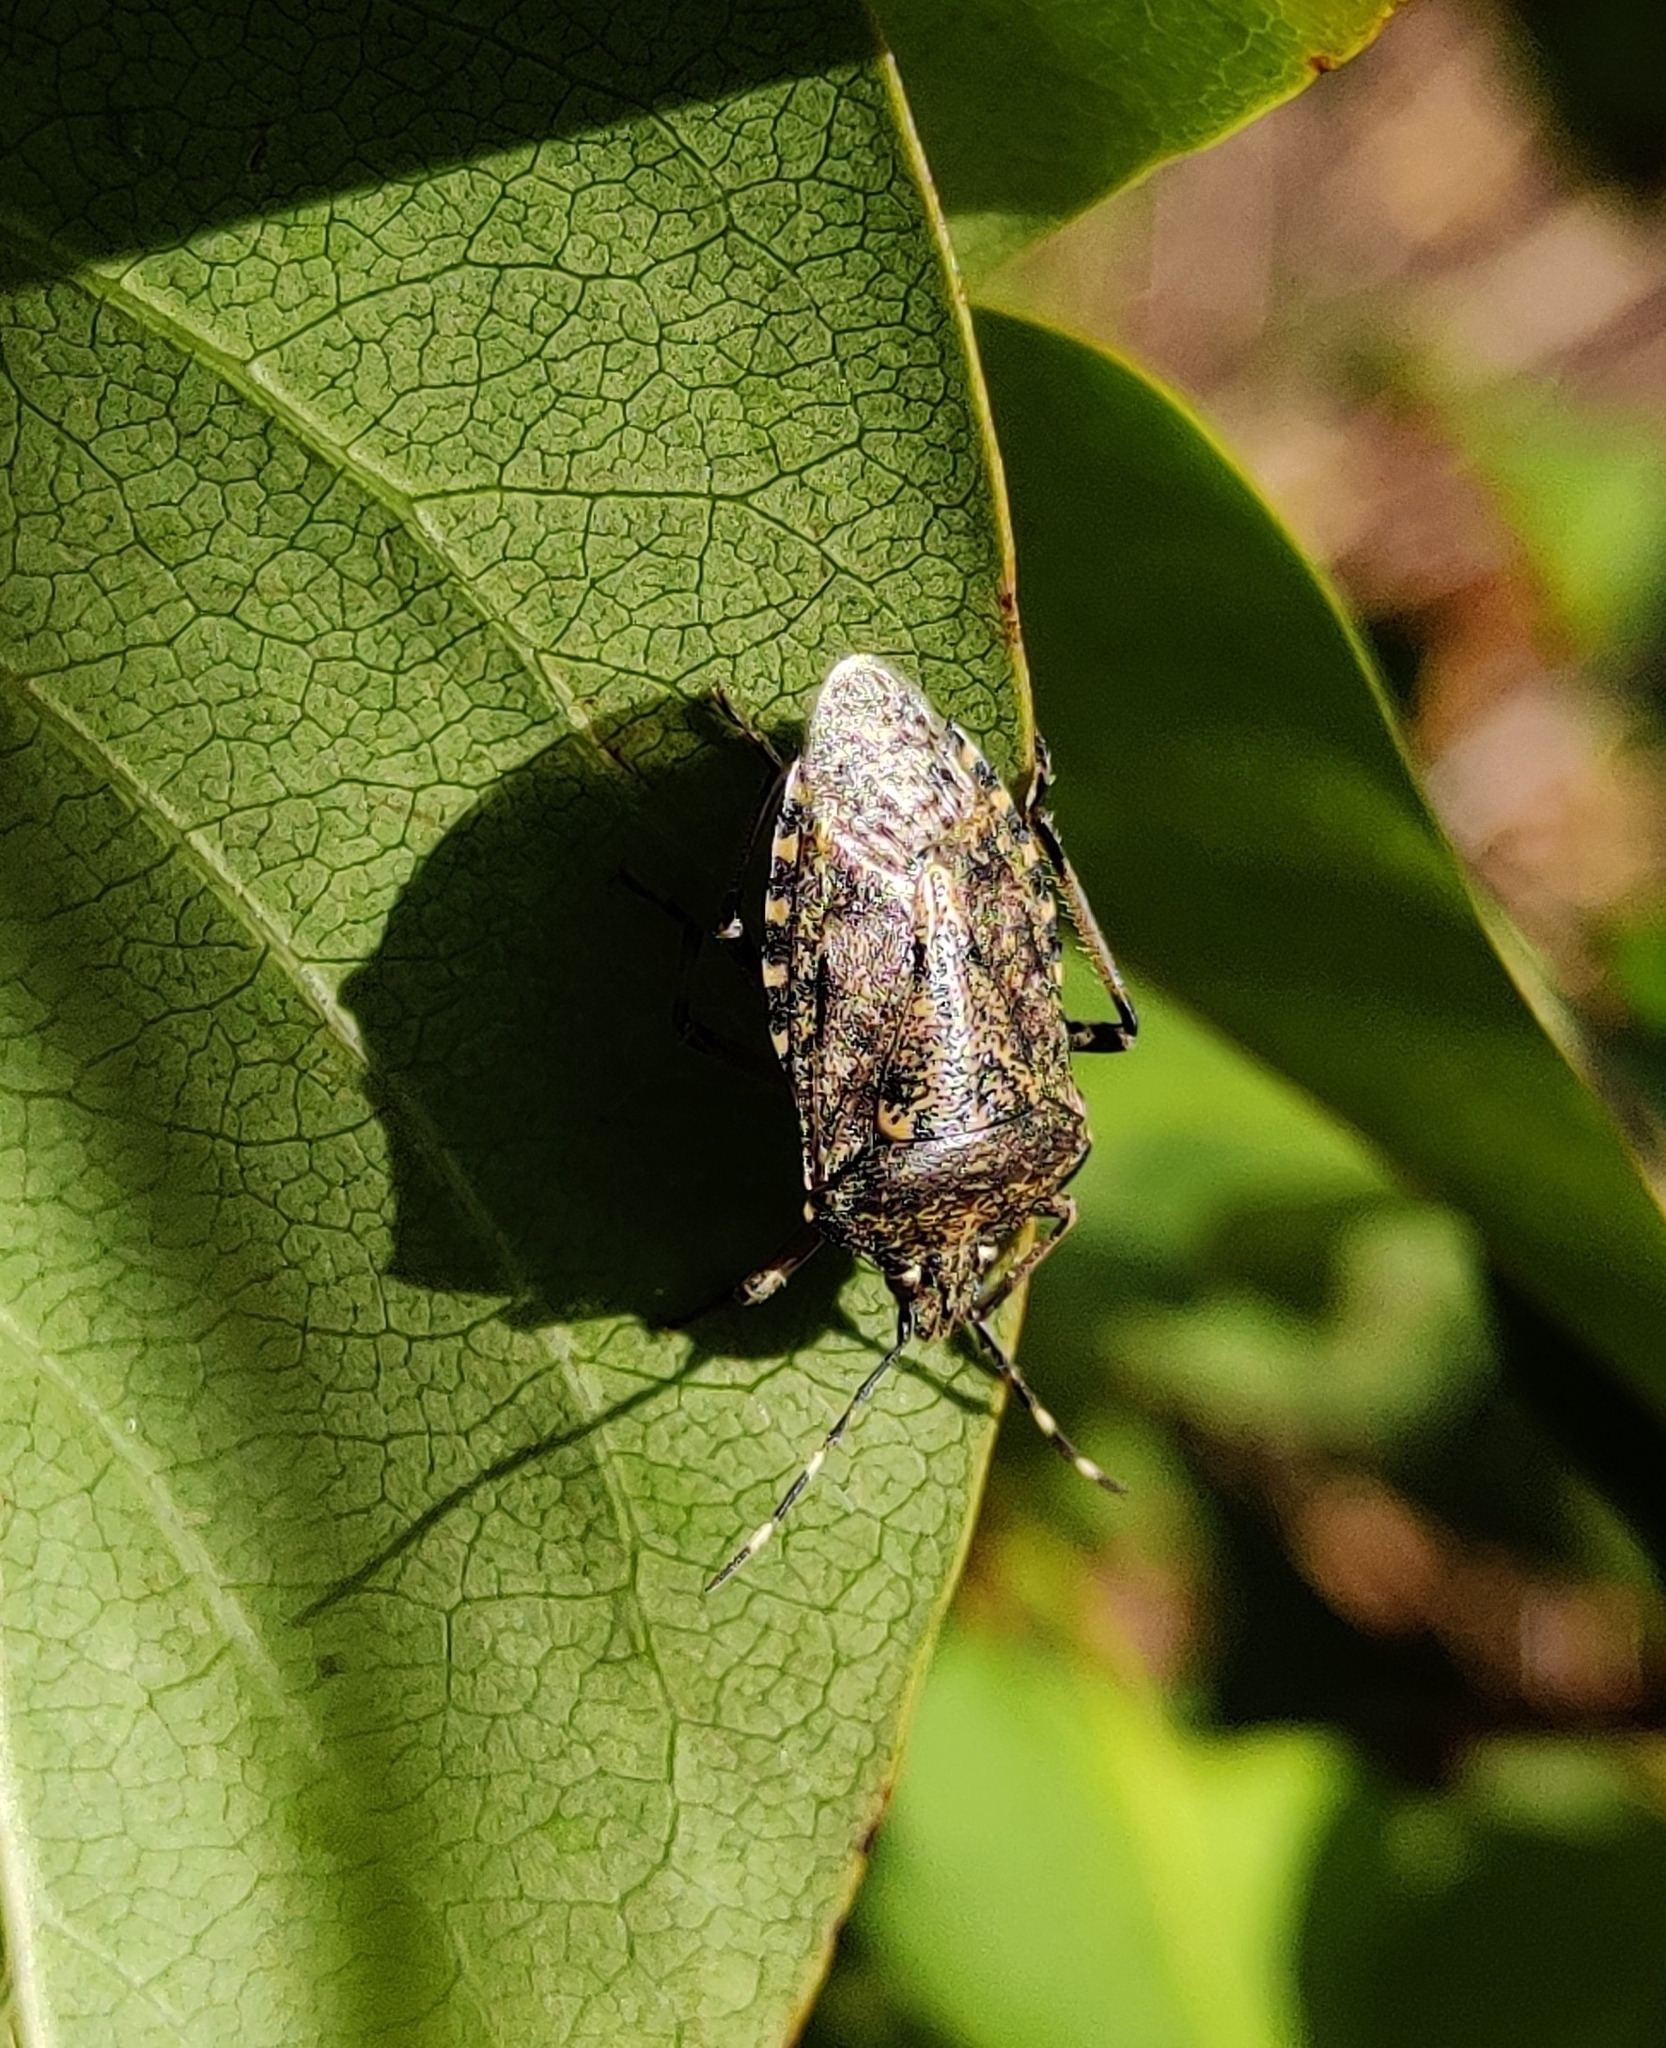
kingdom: Animalia
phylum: Arthropoda
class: Insecta
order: Hemiptera
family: Pentatomidae
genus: Rhaphigaster
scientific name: Rhaphigaster nebulosa
